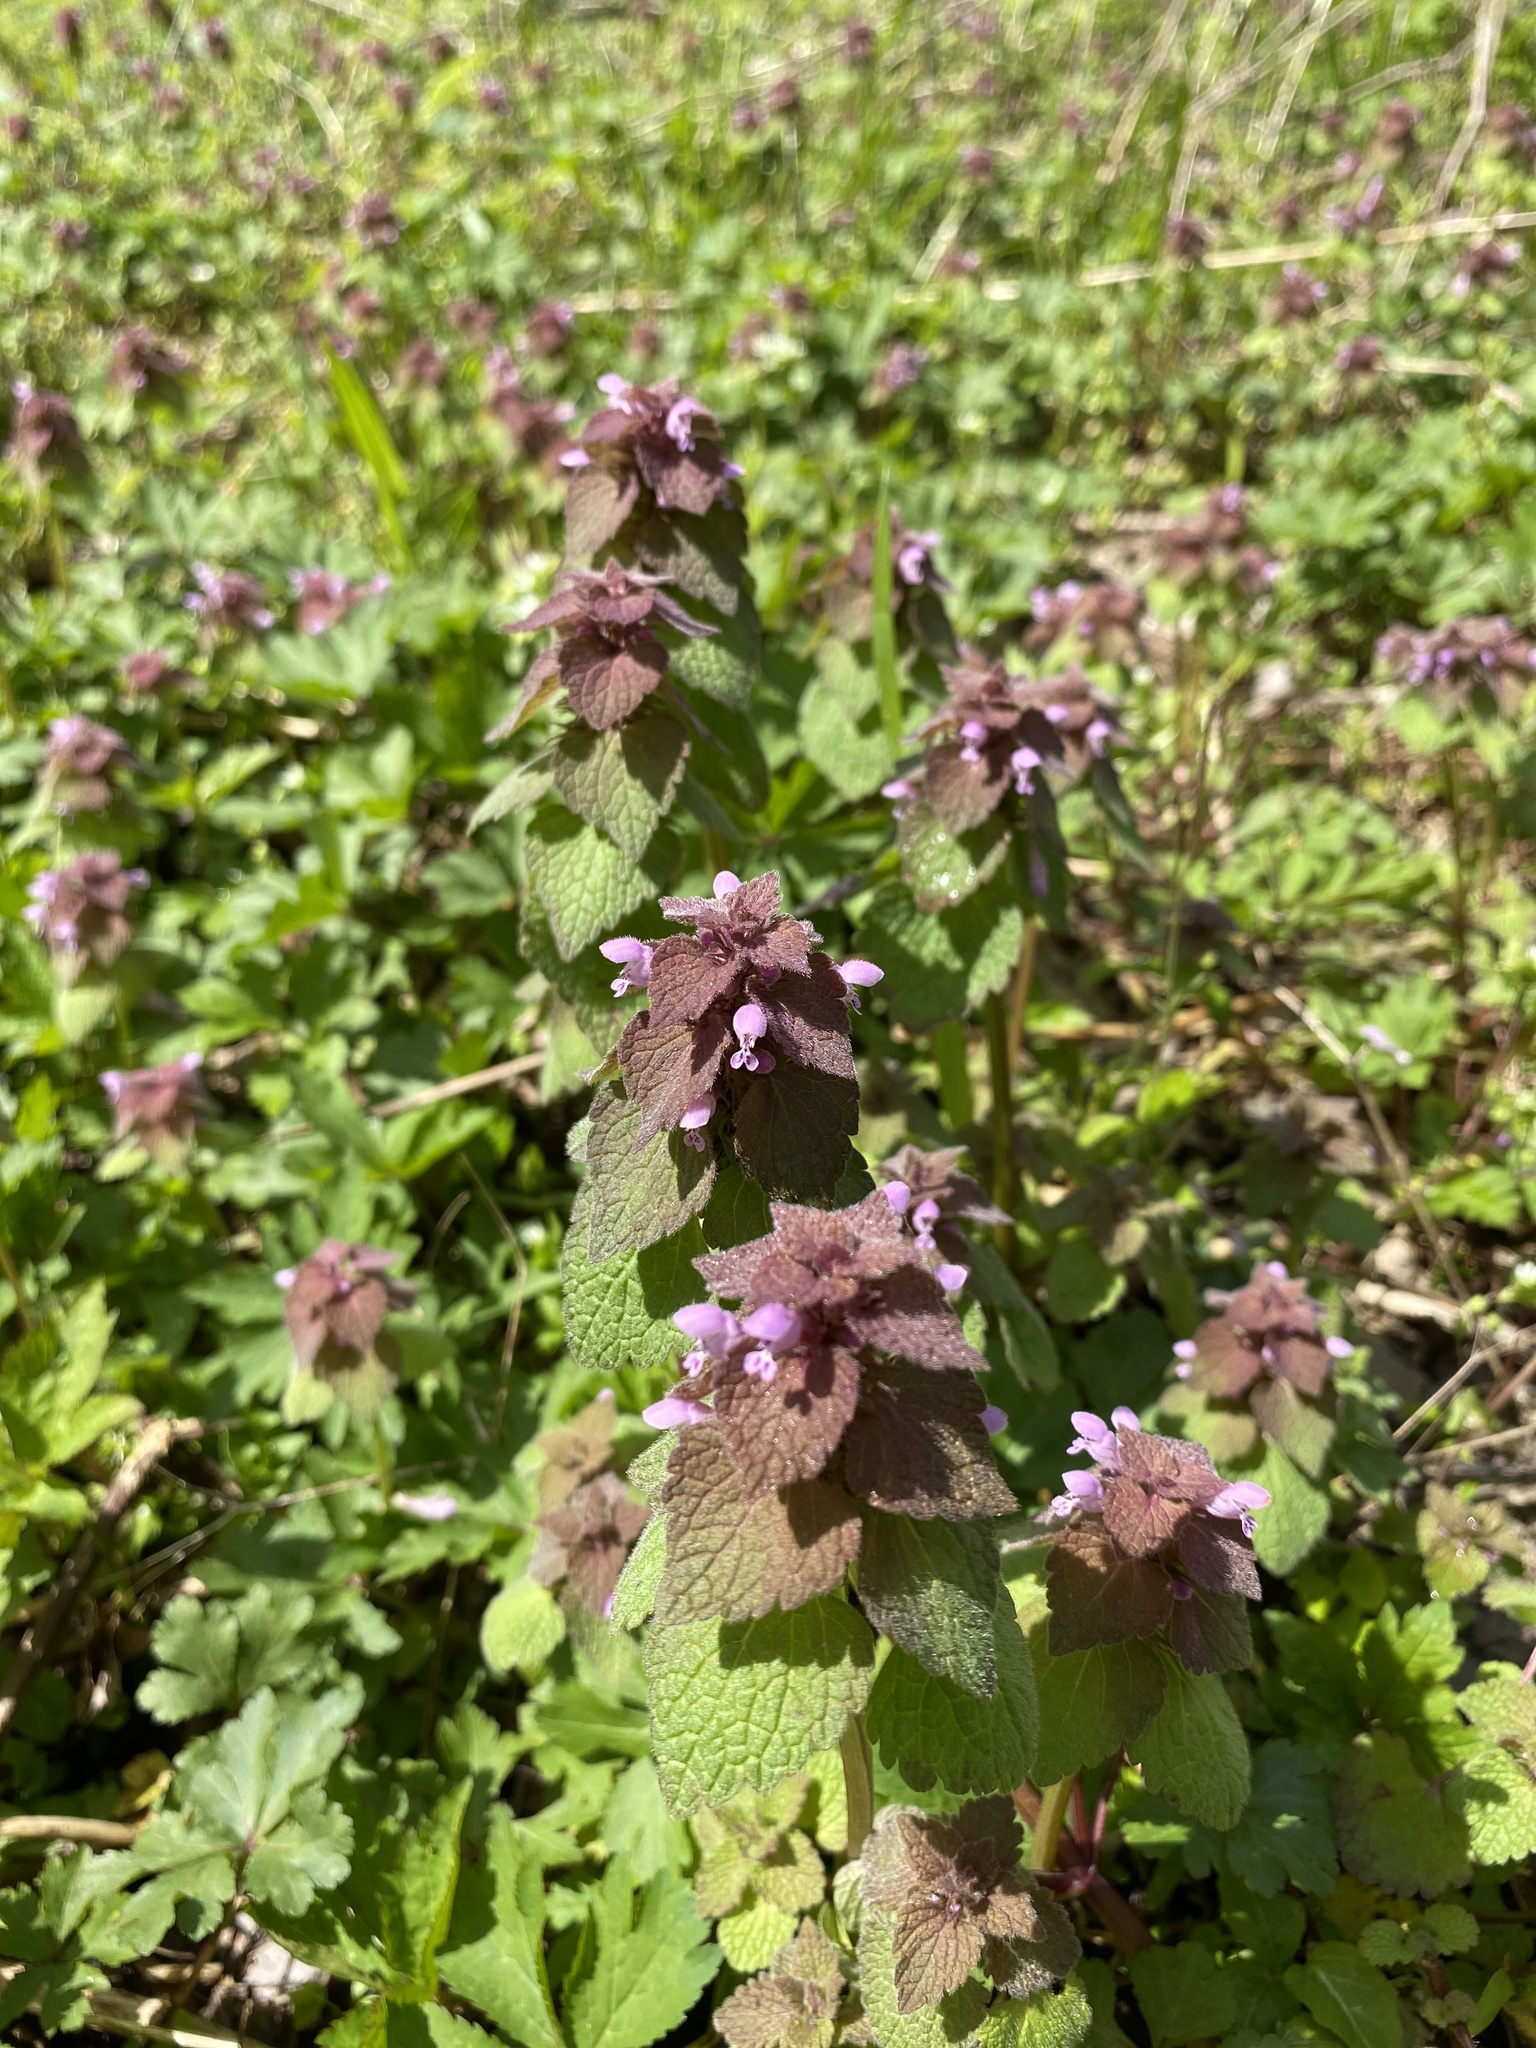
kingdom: Plantae
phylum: Tracheophyta
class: Magnoliopsida
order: Lamiales
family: Lamiaceae
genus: Lamium
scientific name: Lamium purpureum
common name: Red dead-nettle
